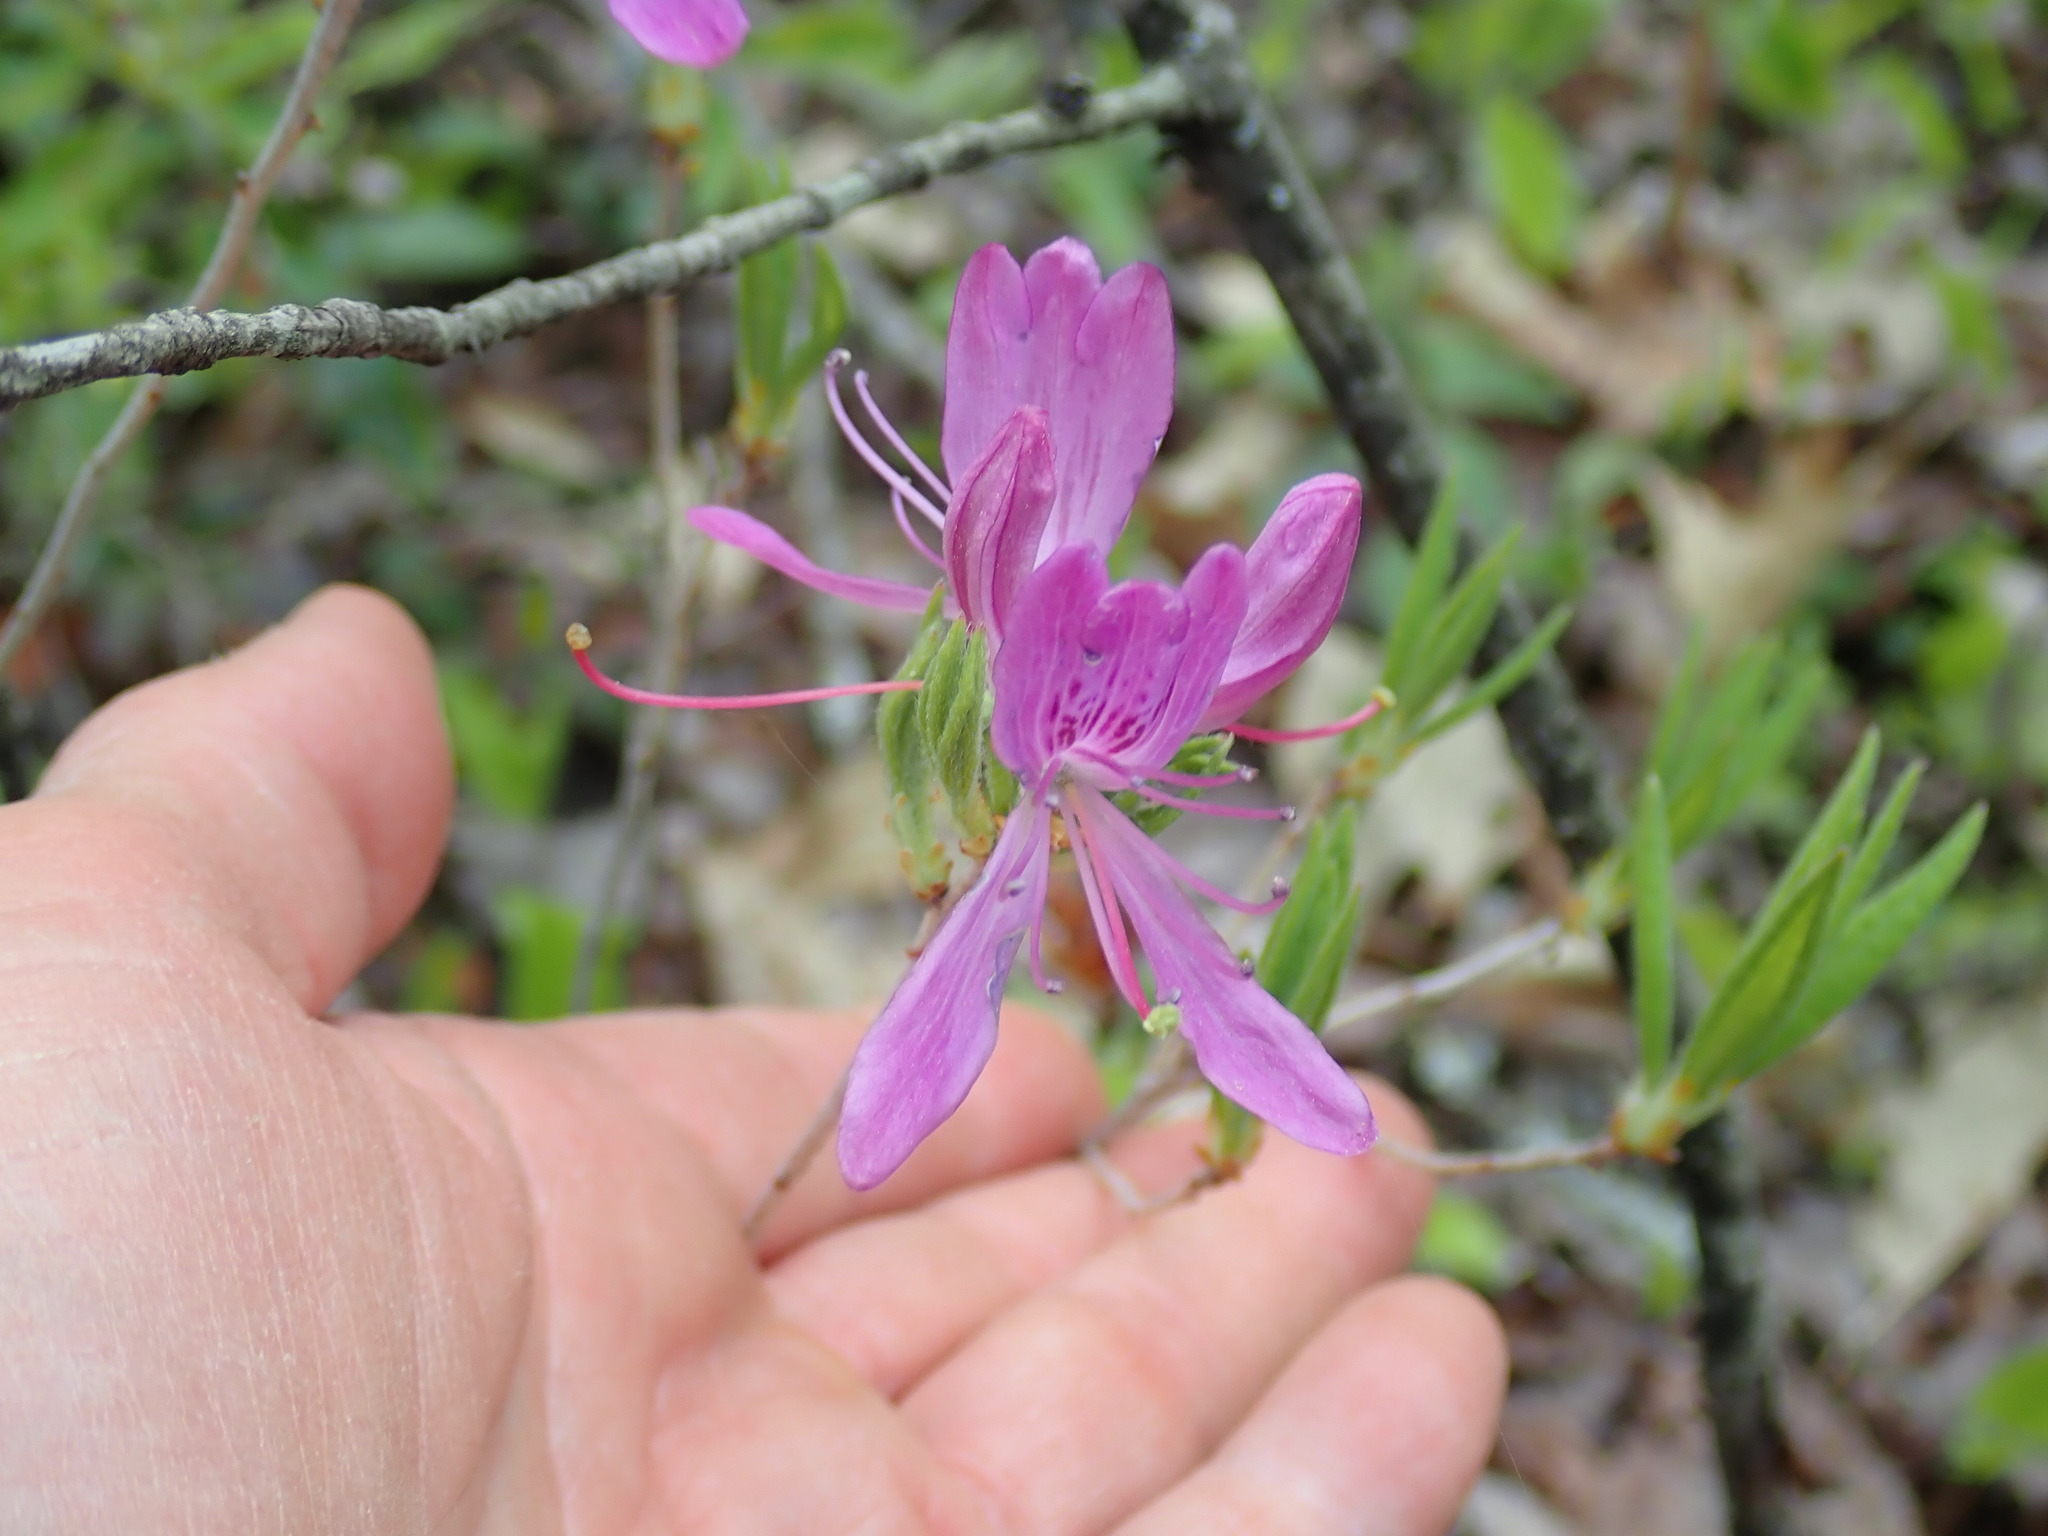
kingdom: Plantae
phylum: Tracheophyta
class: Magnoliopsida
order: Ericales
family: Ericaceae
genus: Rhododendron
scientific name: Rhododendron canadense
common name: Rhodora
